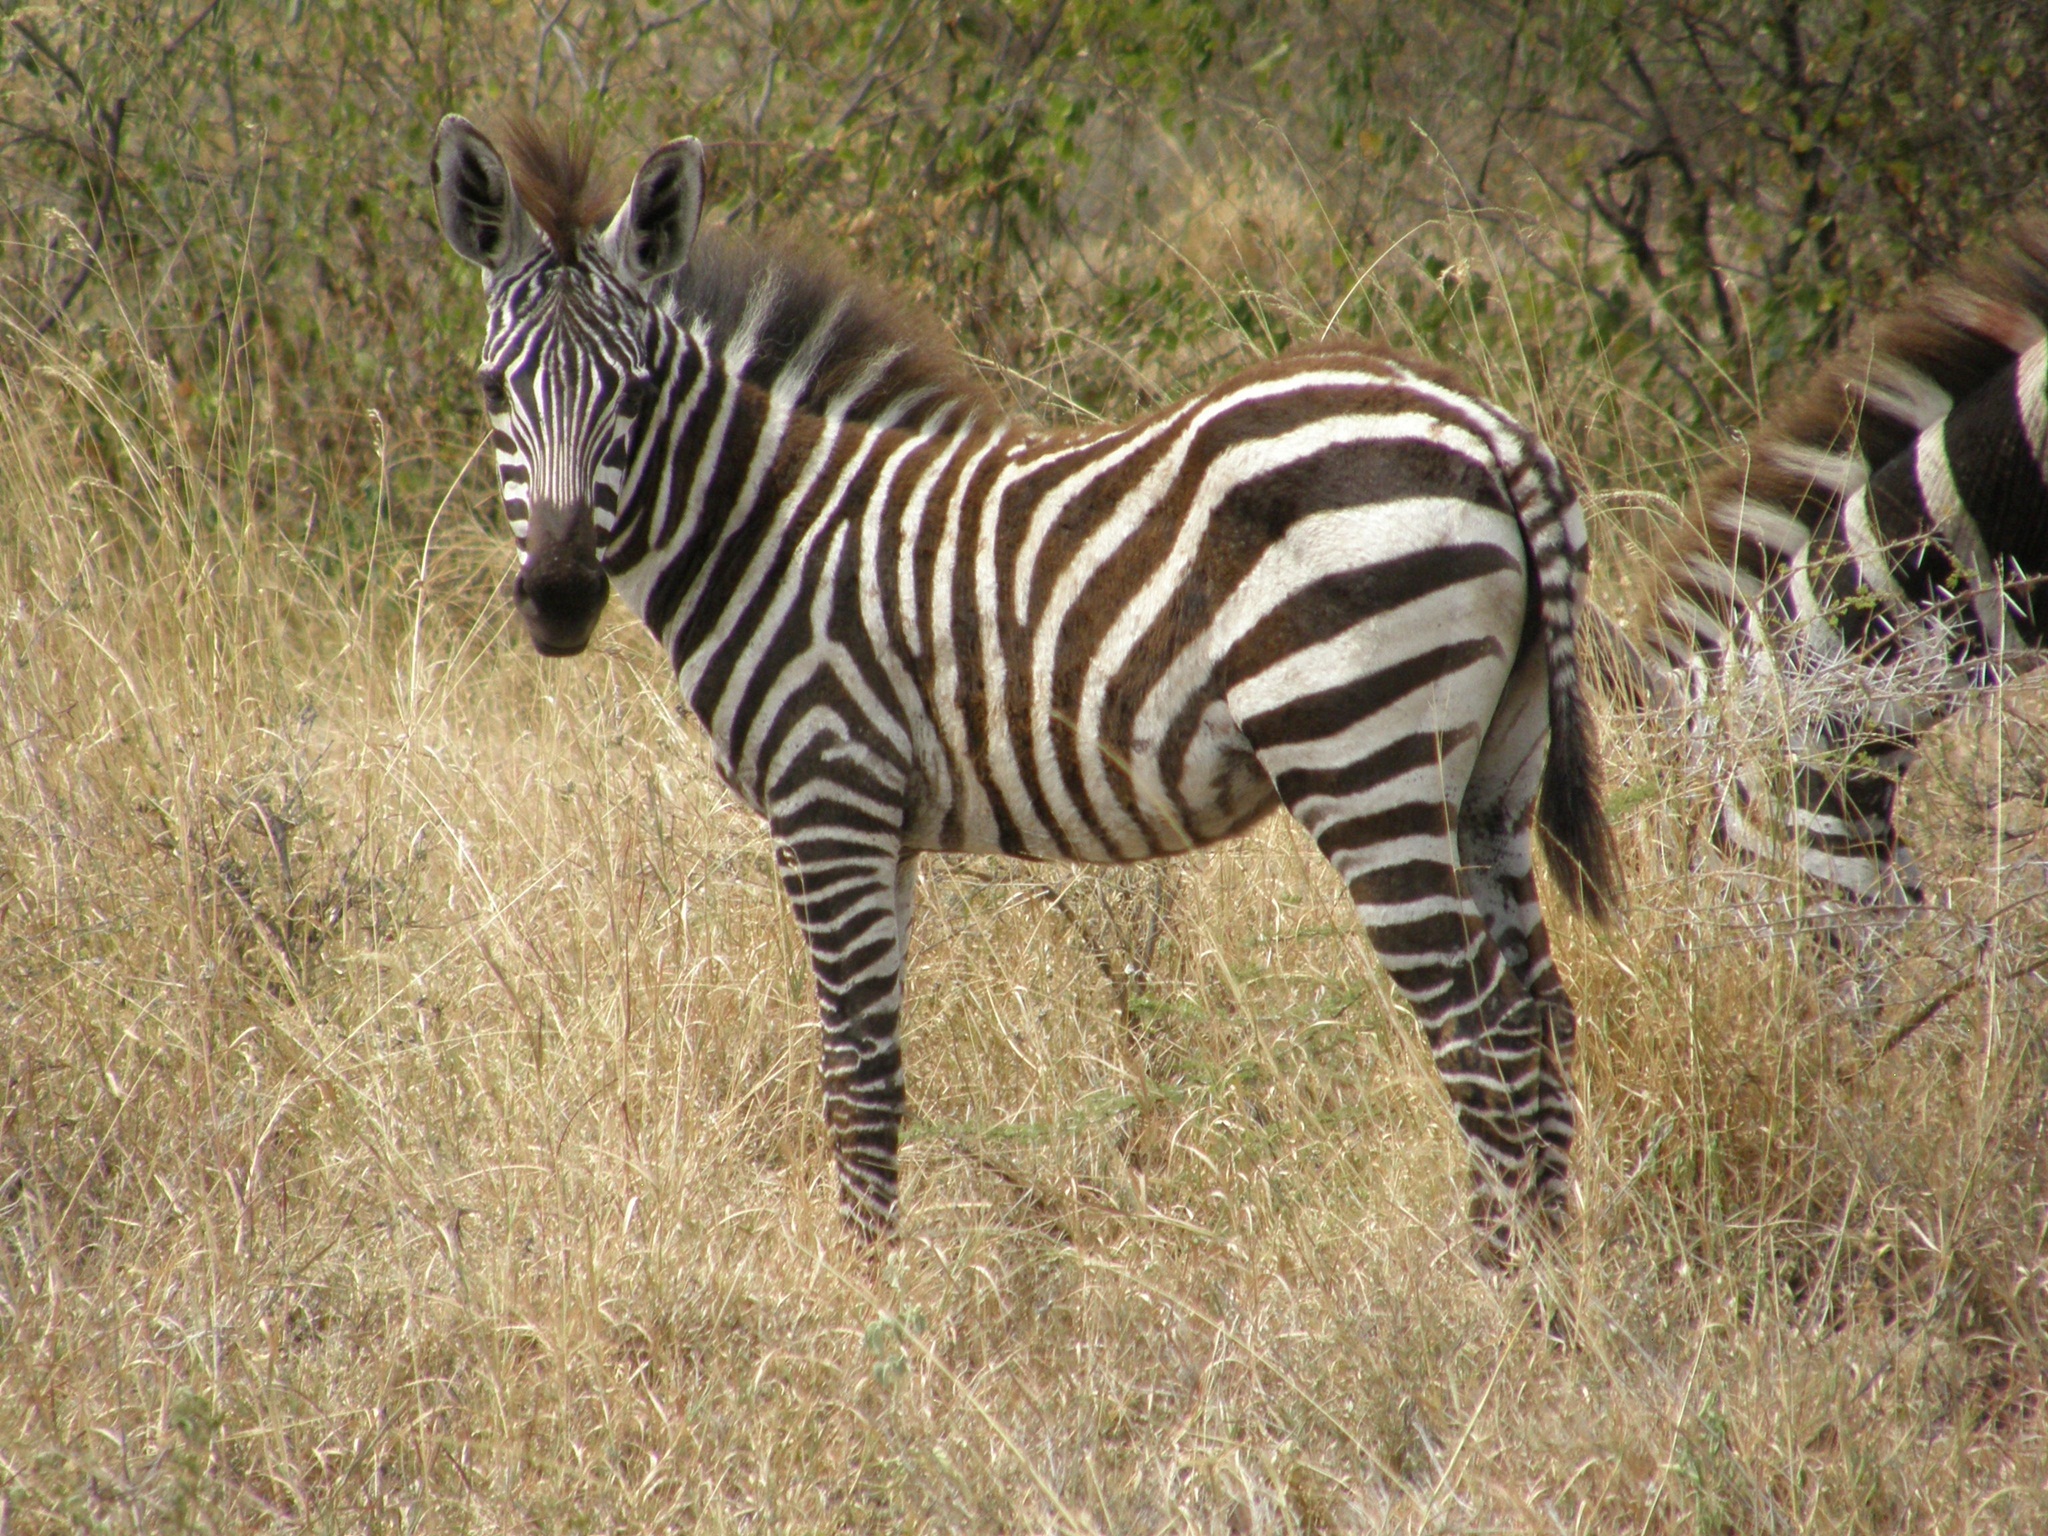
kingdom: Animalia
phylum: Chordata
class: Mammalia
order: Perissodactyla
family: Equidae
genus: Equus
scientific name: Equus quagga
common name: Plains zebra
